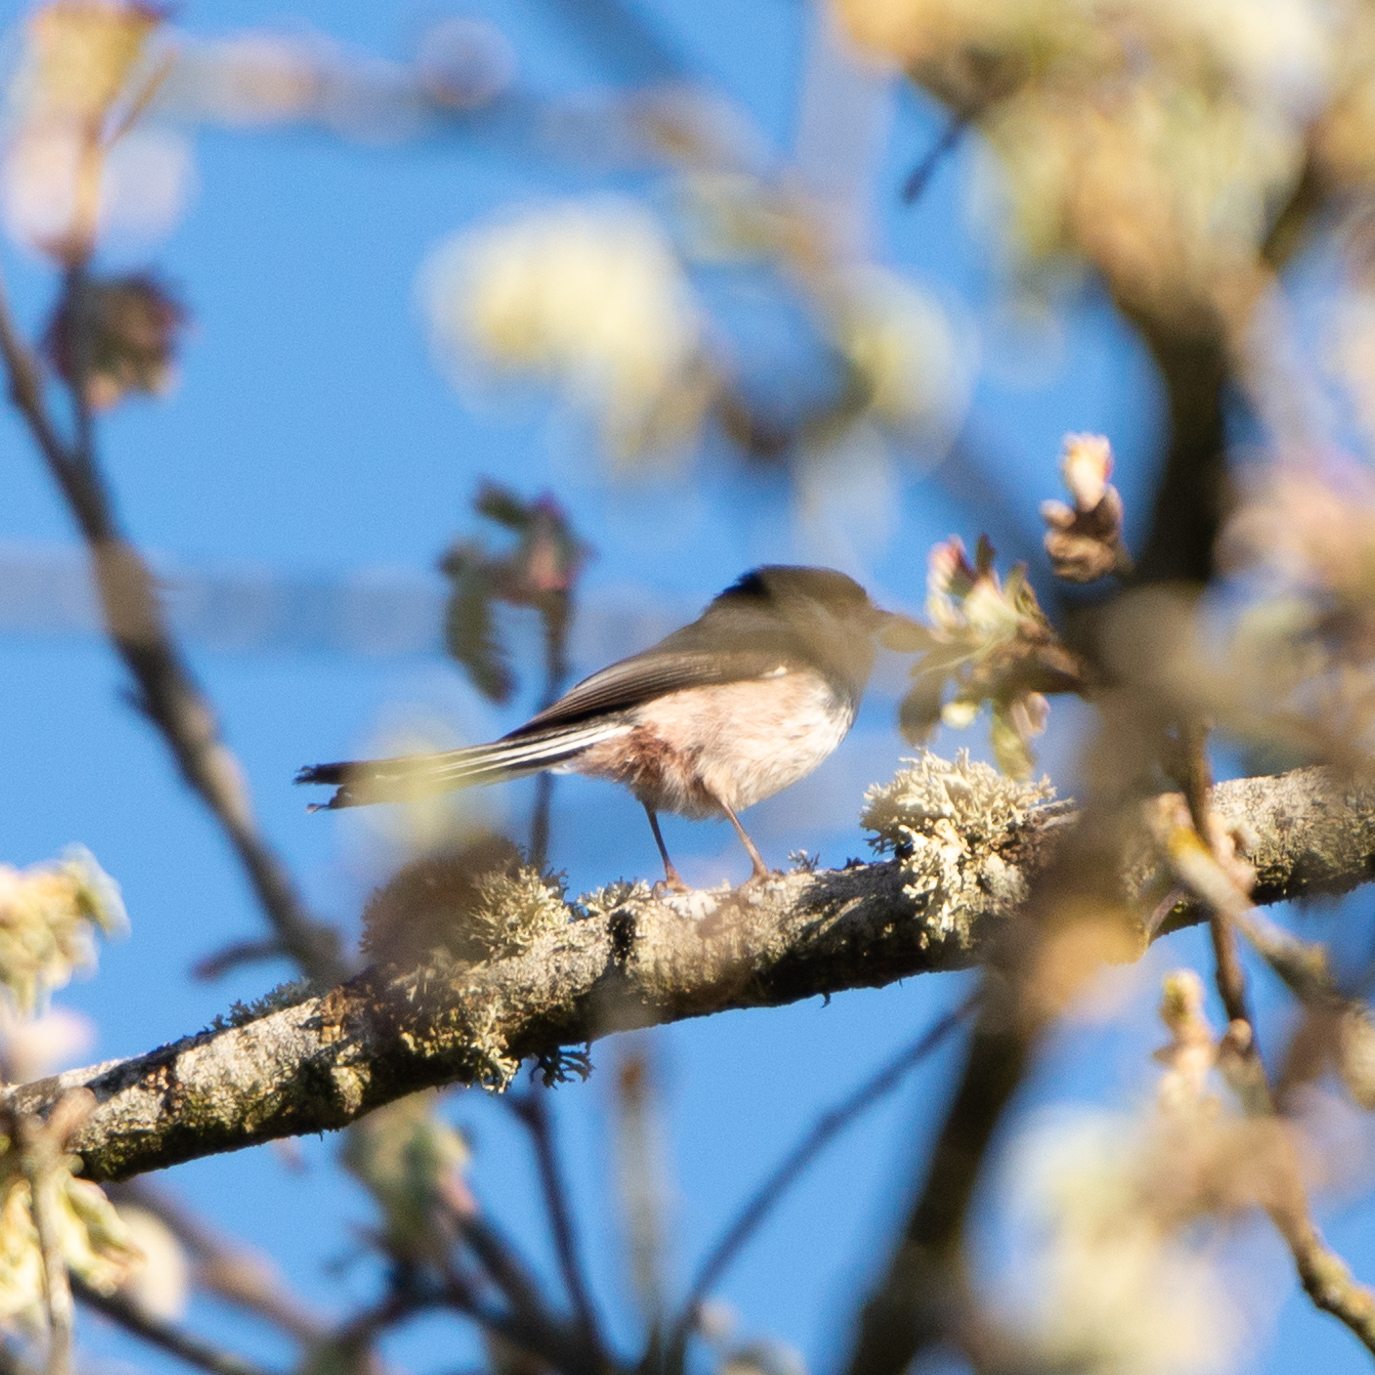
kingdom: Animalia
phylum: Chordata
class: Aves
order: Passeriformes
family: Aegithalidae
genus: Aegithalos
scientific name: Aegithalos caudatus
